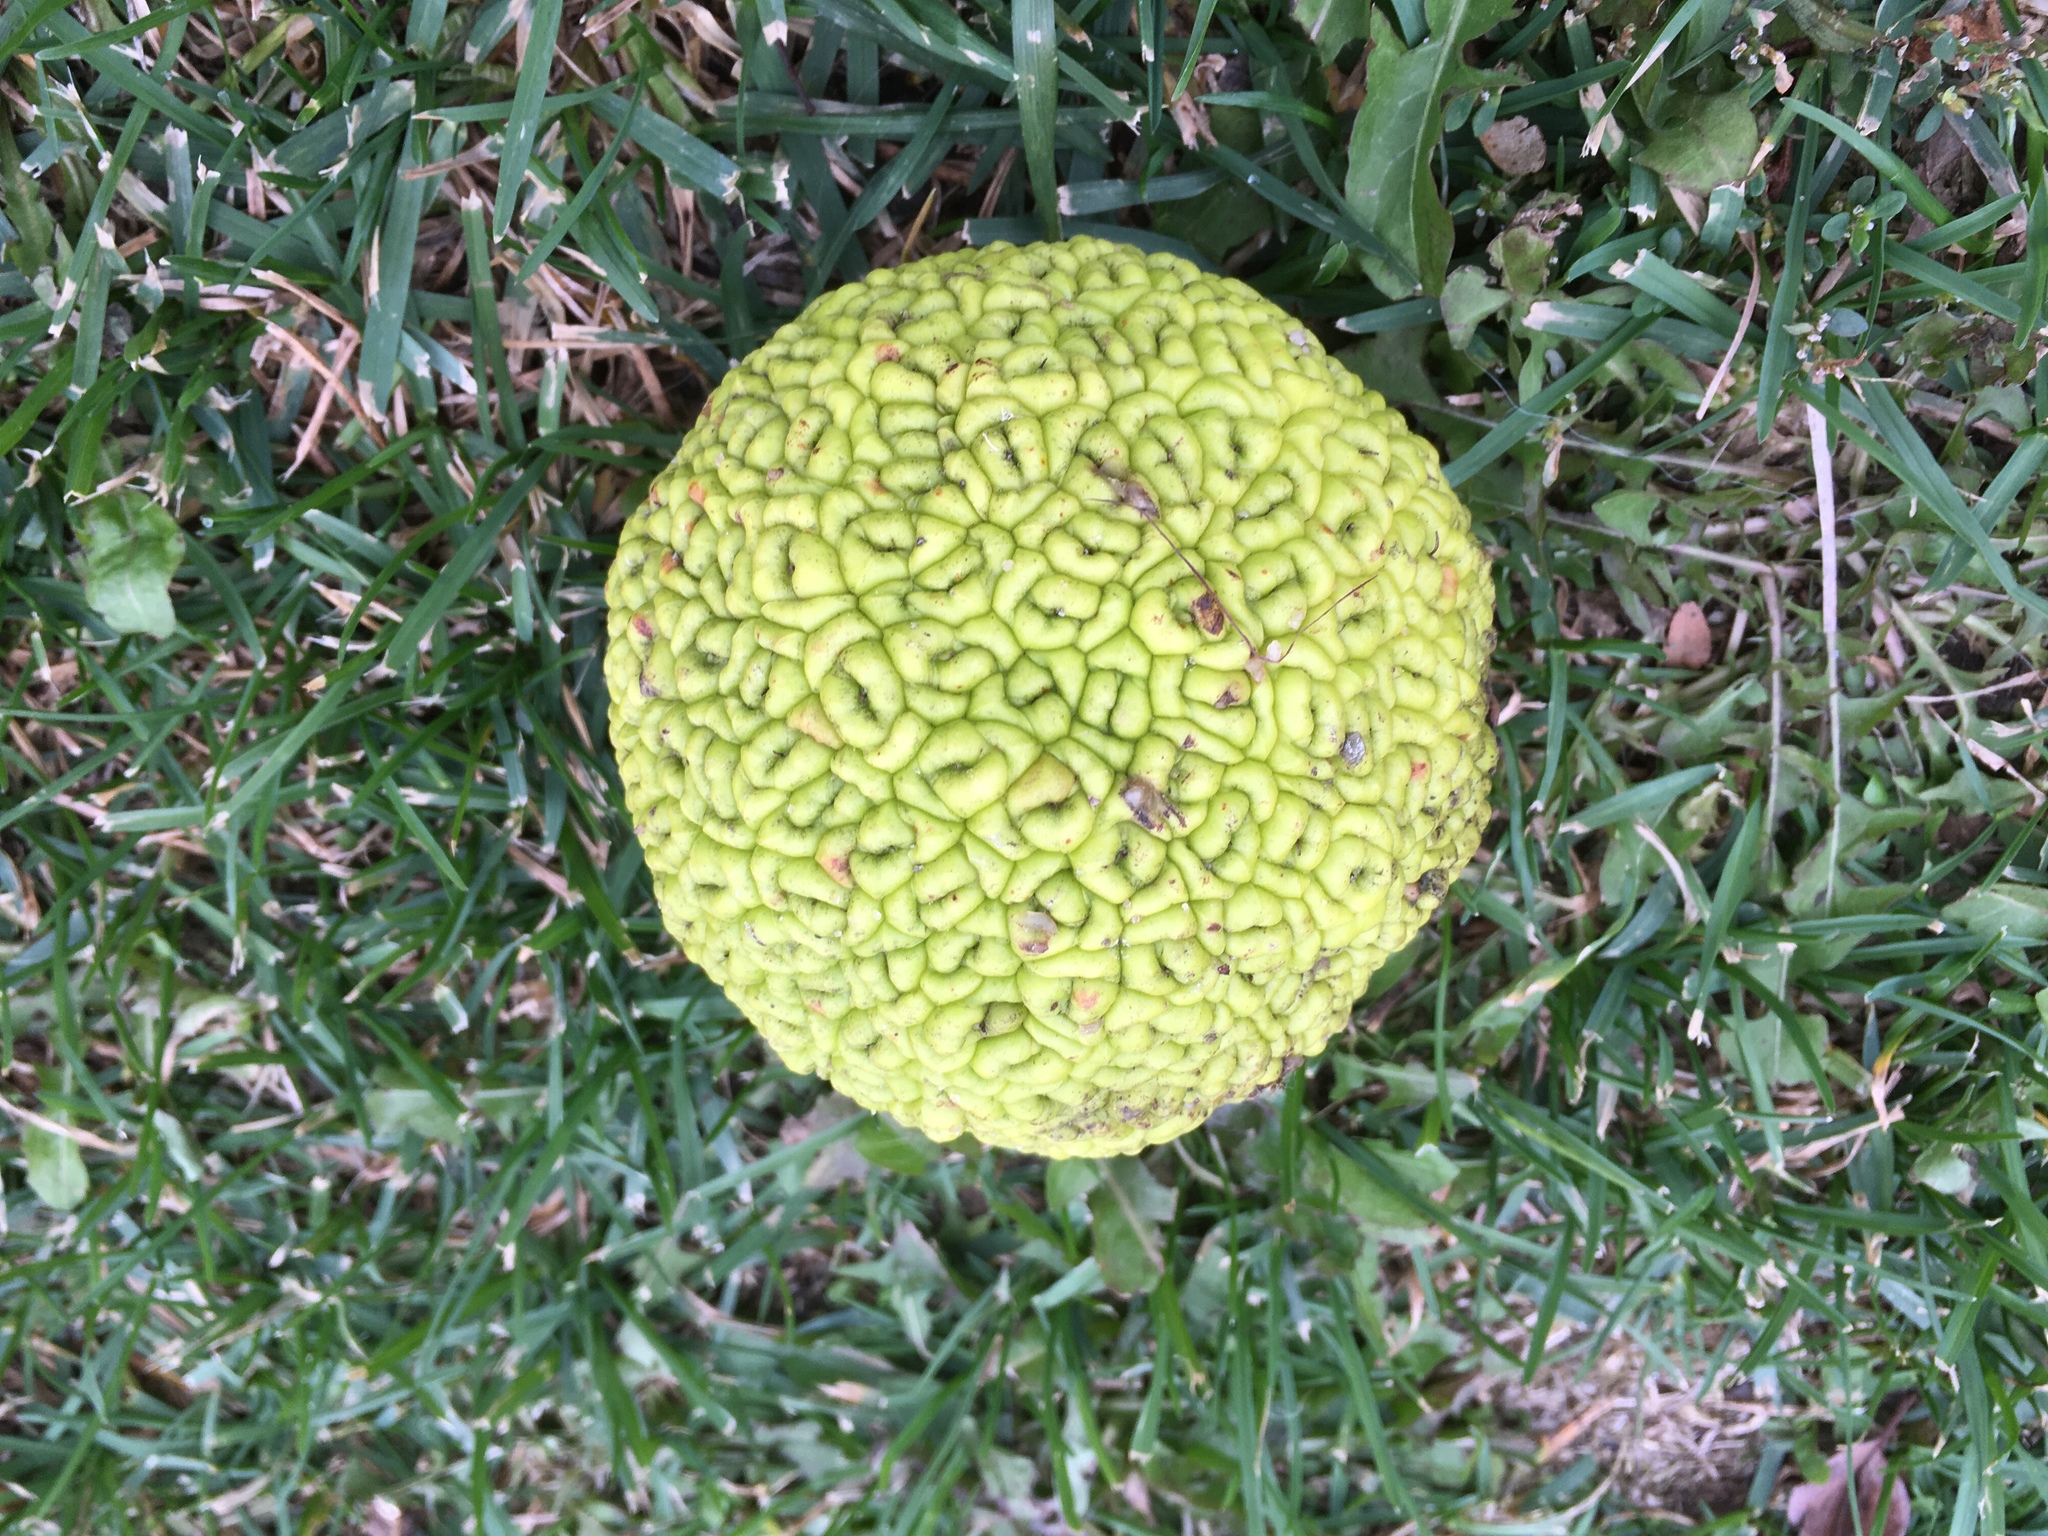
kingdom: Plantae
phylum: Tracheophyta
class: Magnoliopsida
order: Rosales
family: Moraceae
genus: Maclura
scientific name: Maclura pomifera
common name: Osage-orange
